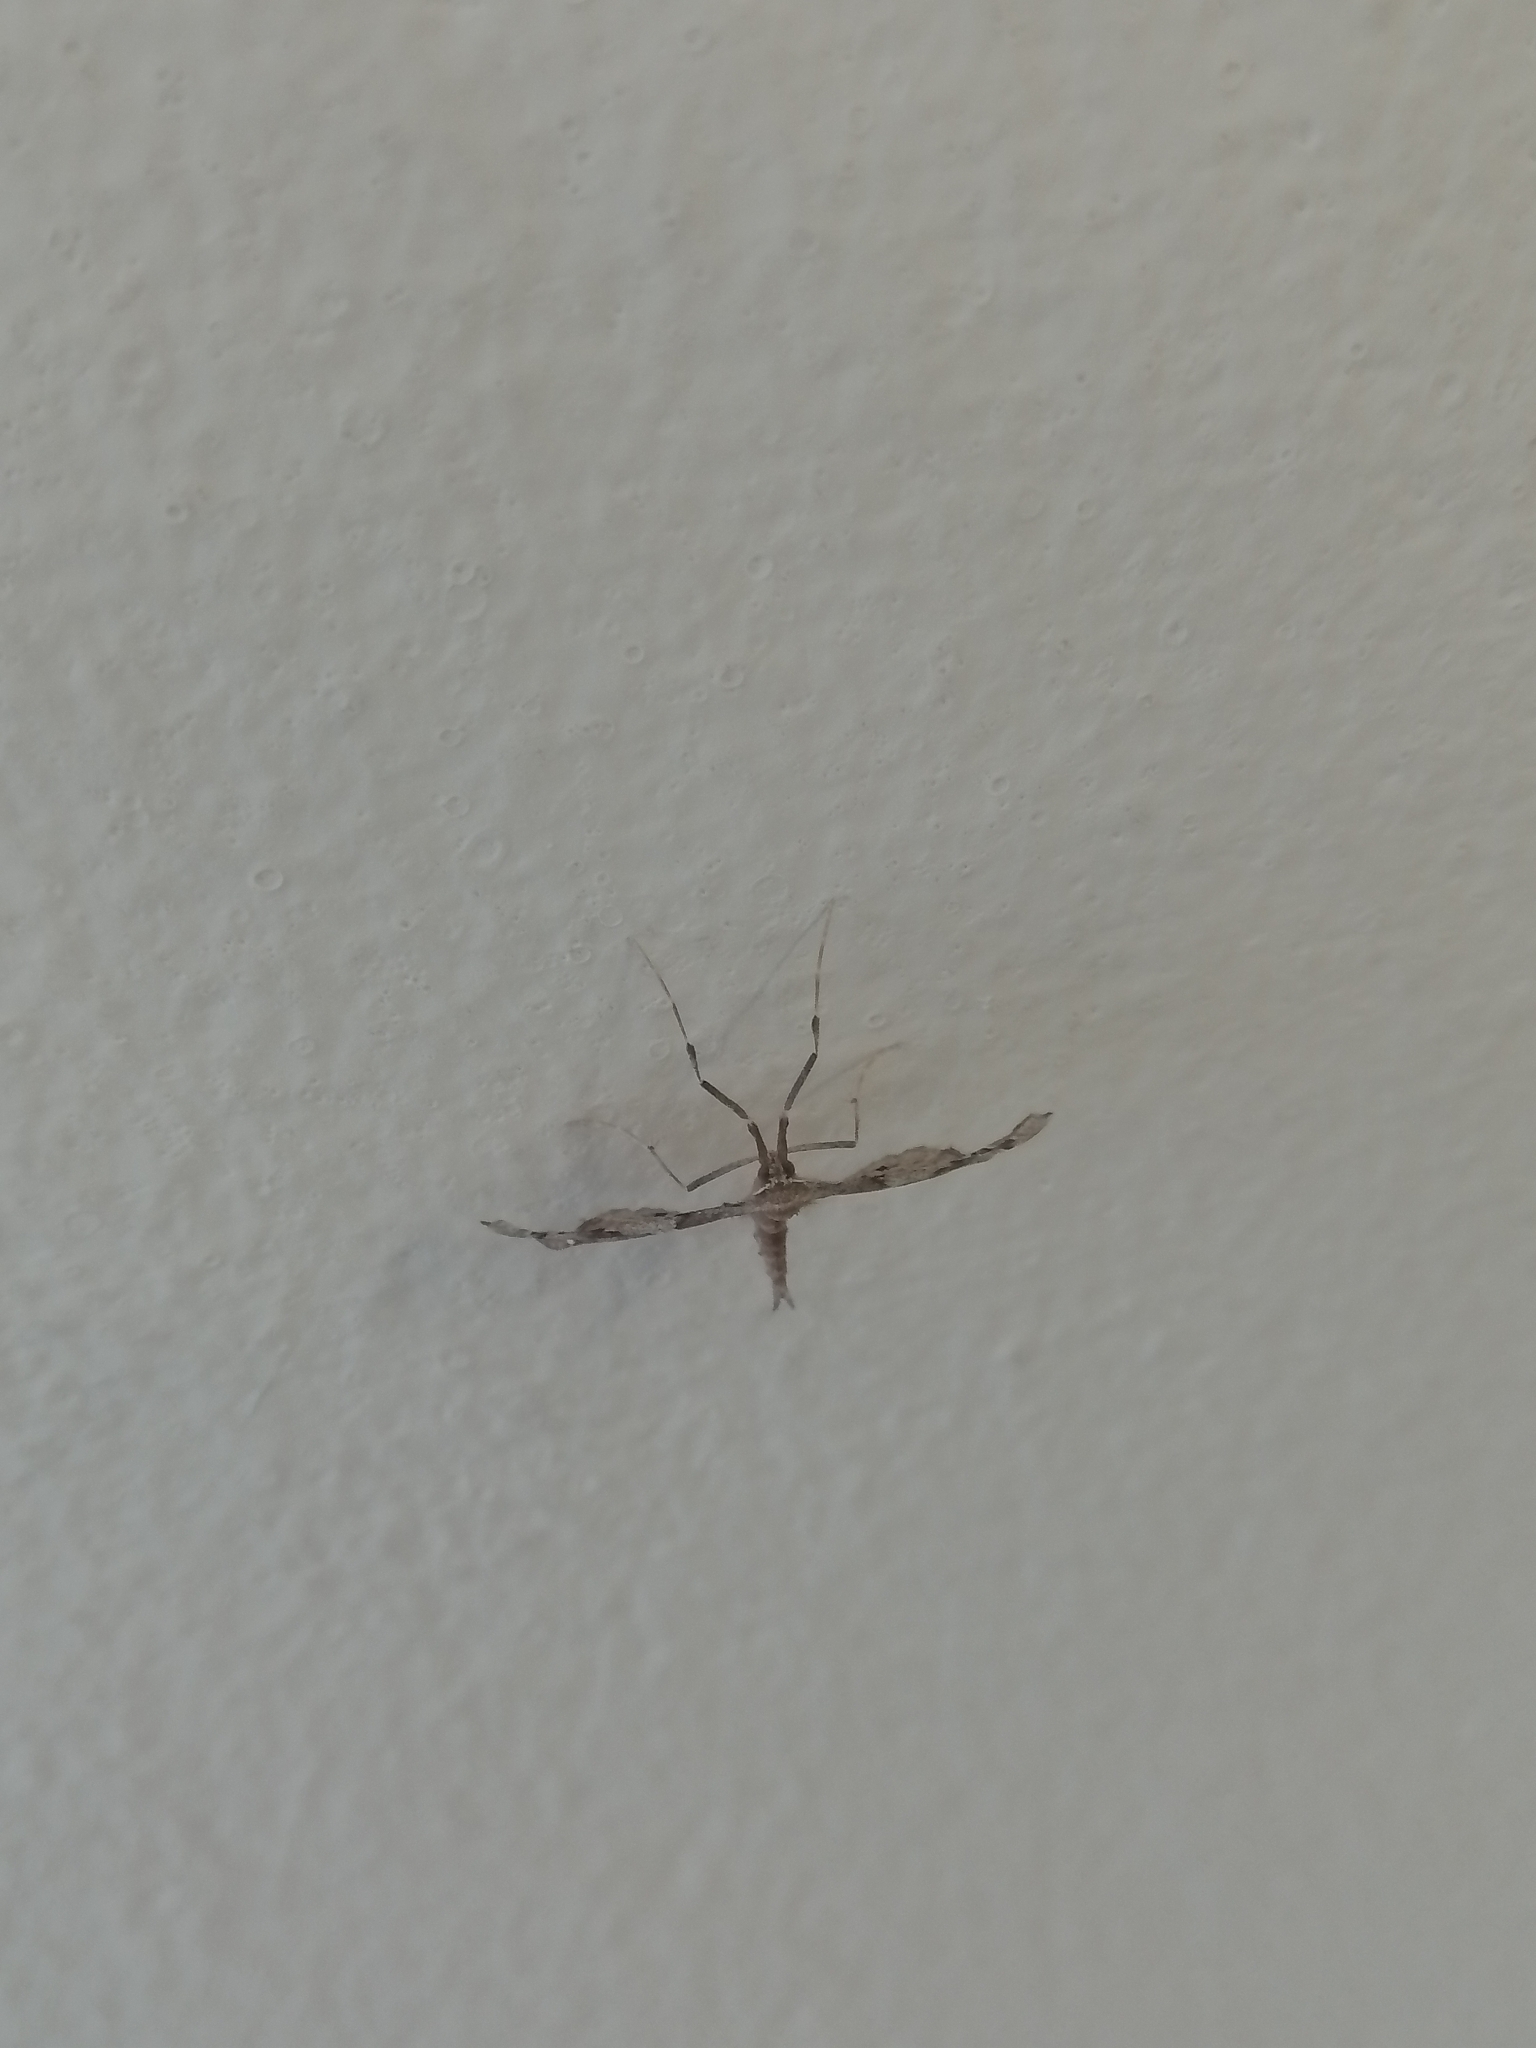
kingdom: Animalia
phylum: Arthropoda
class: Insecta
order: Lepidoptera
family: Geometridae
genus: Odontoptila
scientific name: Odontoptila obrimo
